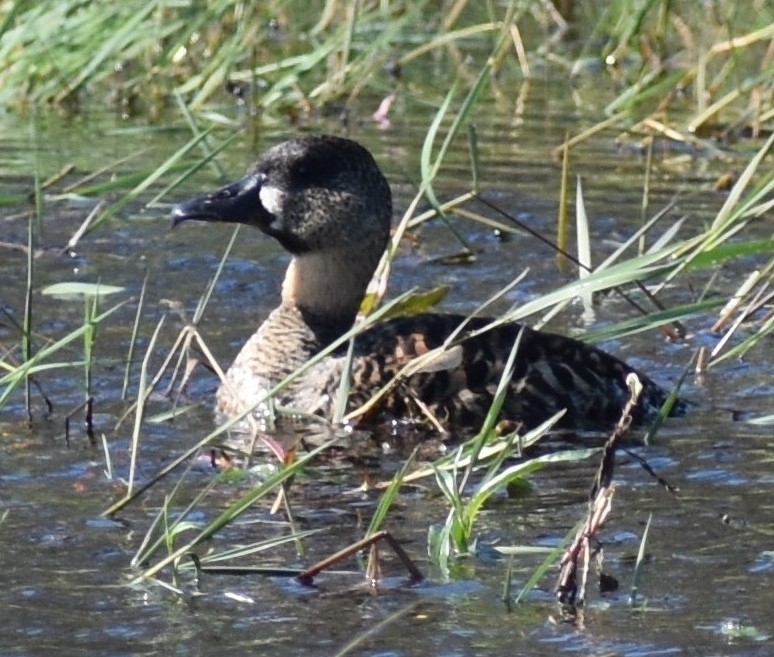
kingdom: Animalia
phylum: Chordata
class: Aves
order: Anseriformes
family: Anatidae
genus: Thalassornis
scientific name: Thalassornis leuconotus
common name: White-backed duck
